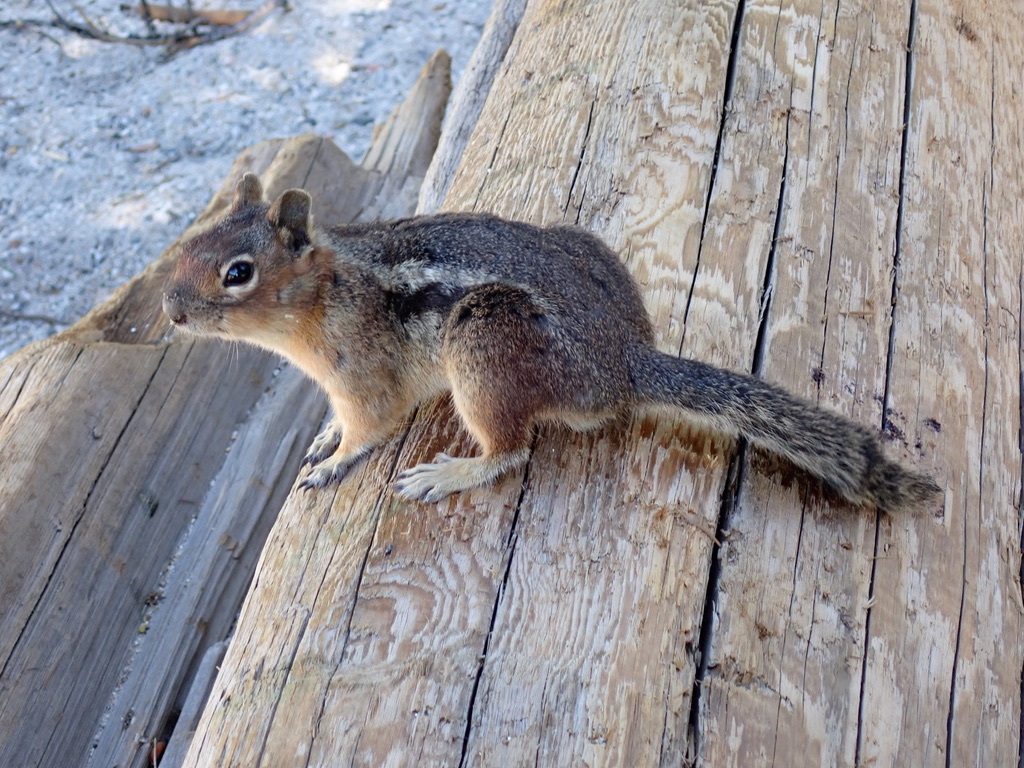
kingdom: Animalia
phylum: Chordata
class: Mammalia
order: Rodentia
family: Sciuridae
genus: Callospermophilus
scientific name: Callospermophilus saturatus
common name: Cascade golden-mantled ground squirrel
